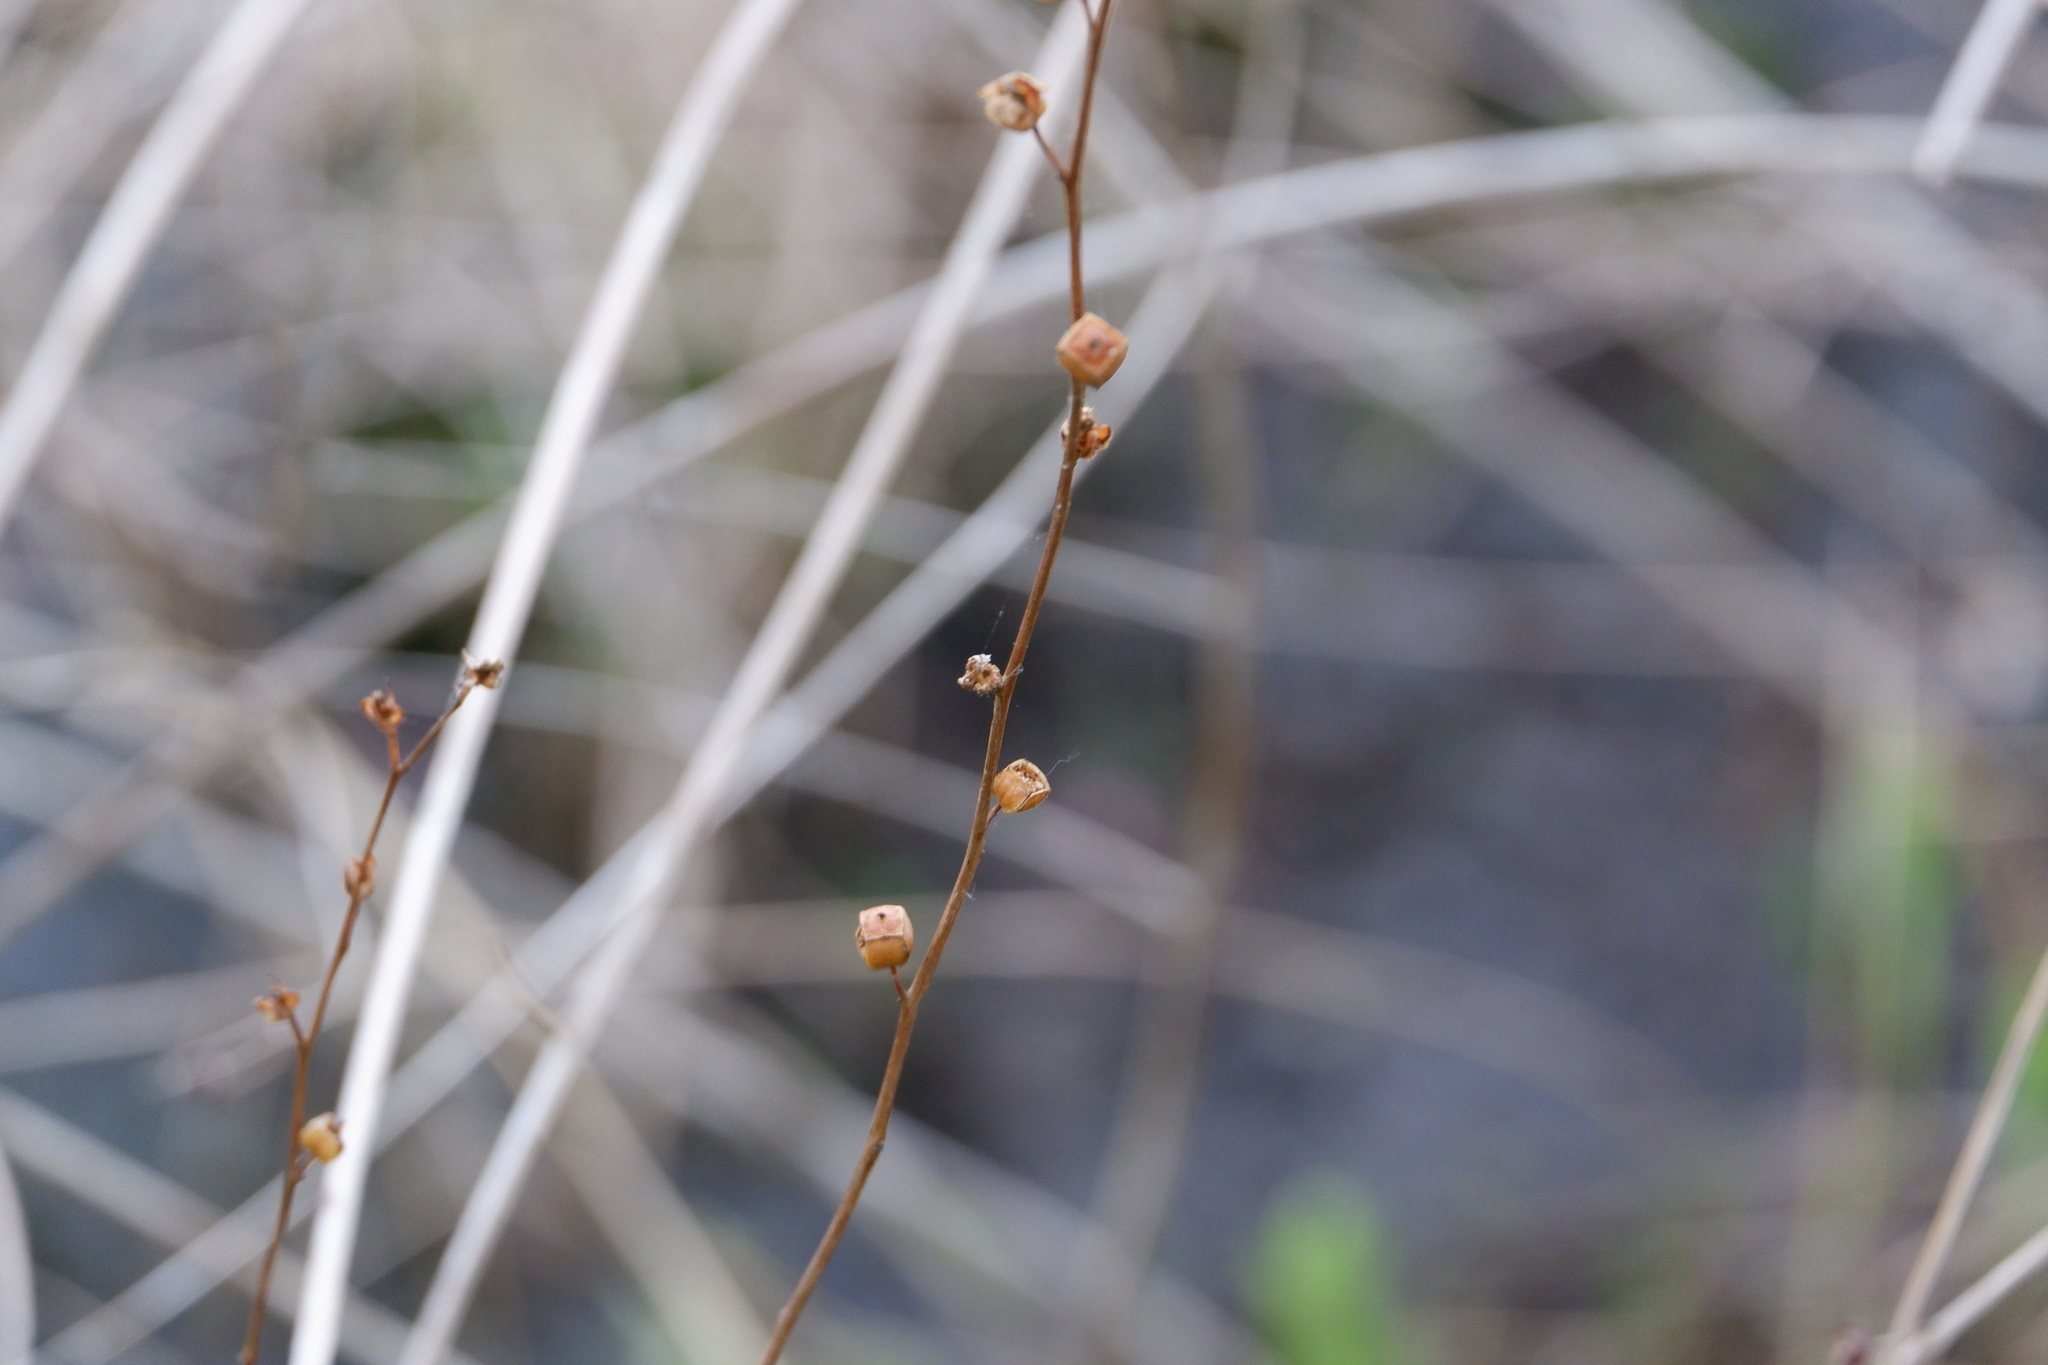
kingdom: Plantae
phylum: Tracheophyta
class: Magnoliopsida
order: Myrtales
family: Onagraceae
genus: Ludwigia
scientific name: Ludwigia alternifolia
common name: Rattlebox
